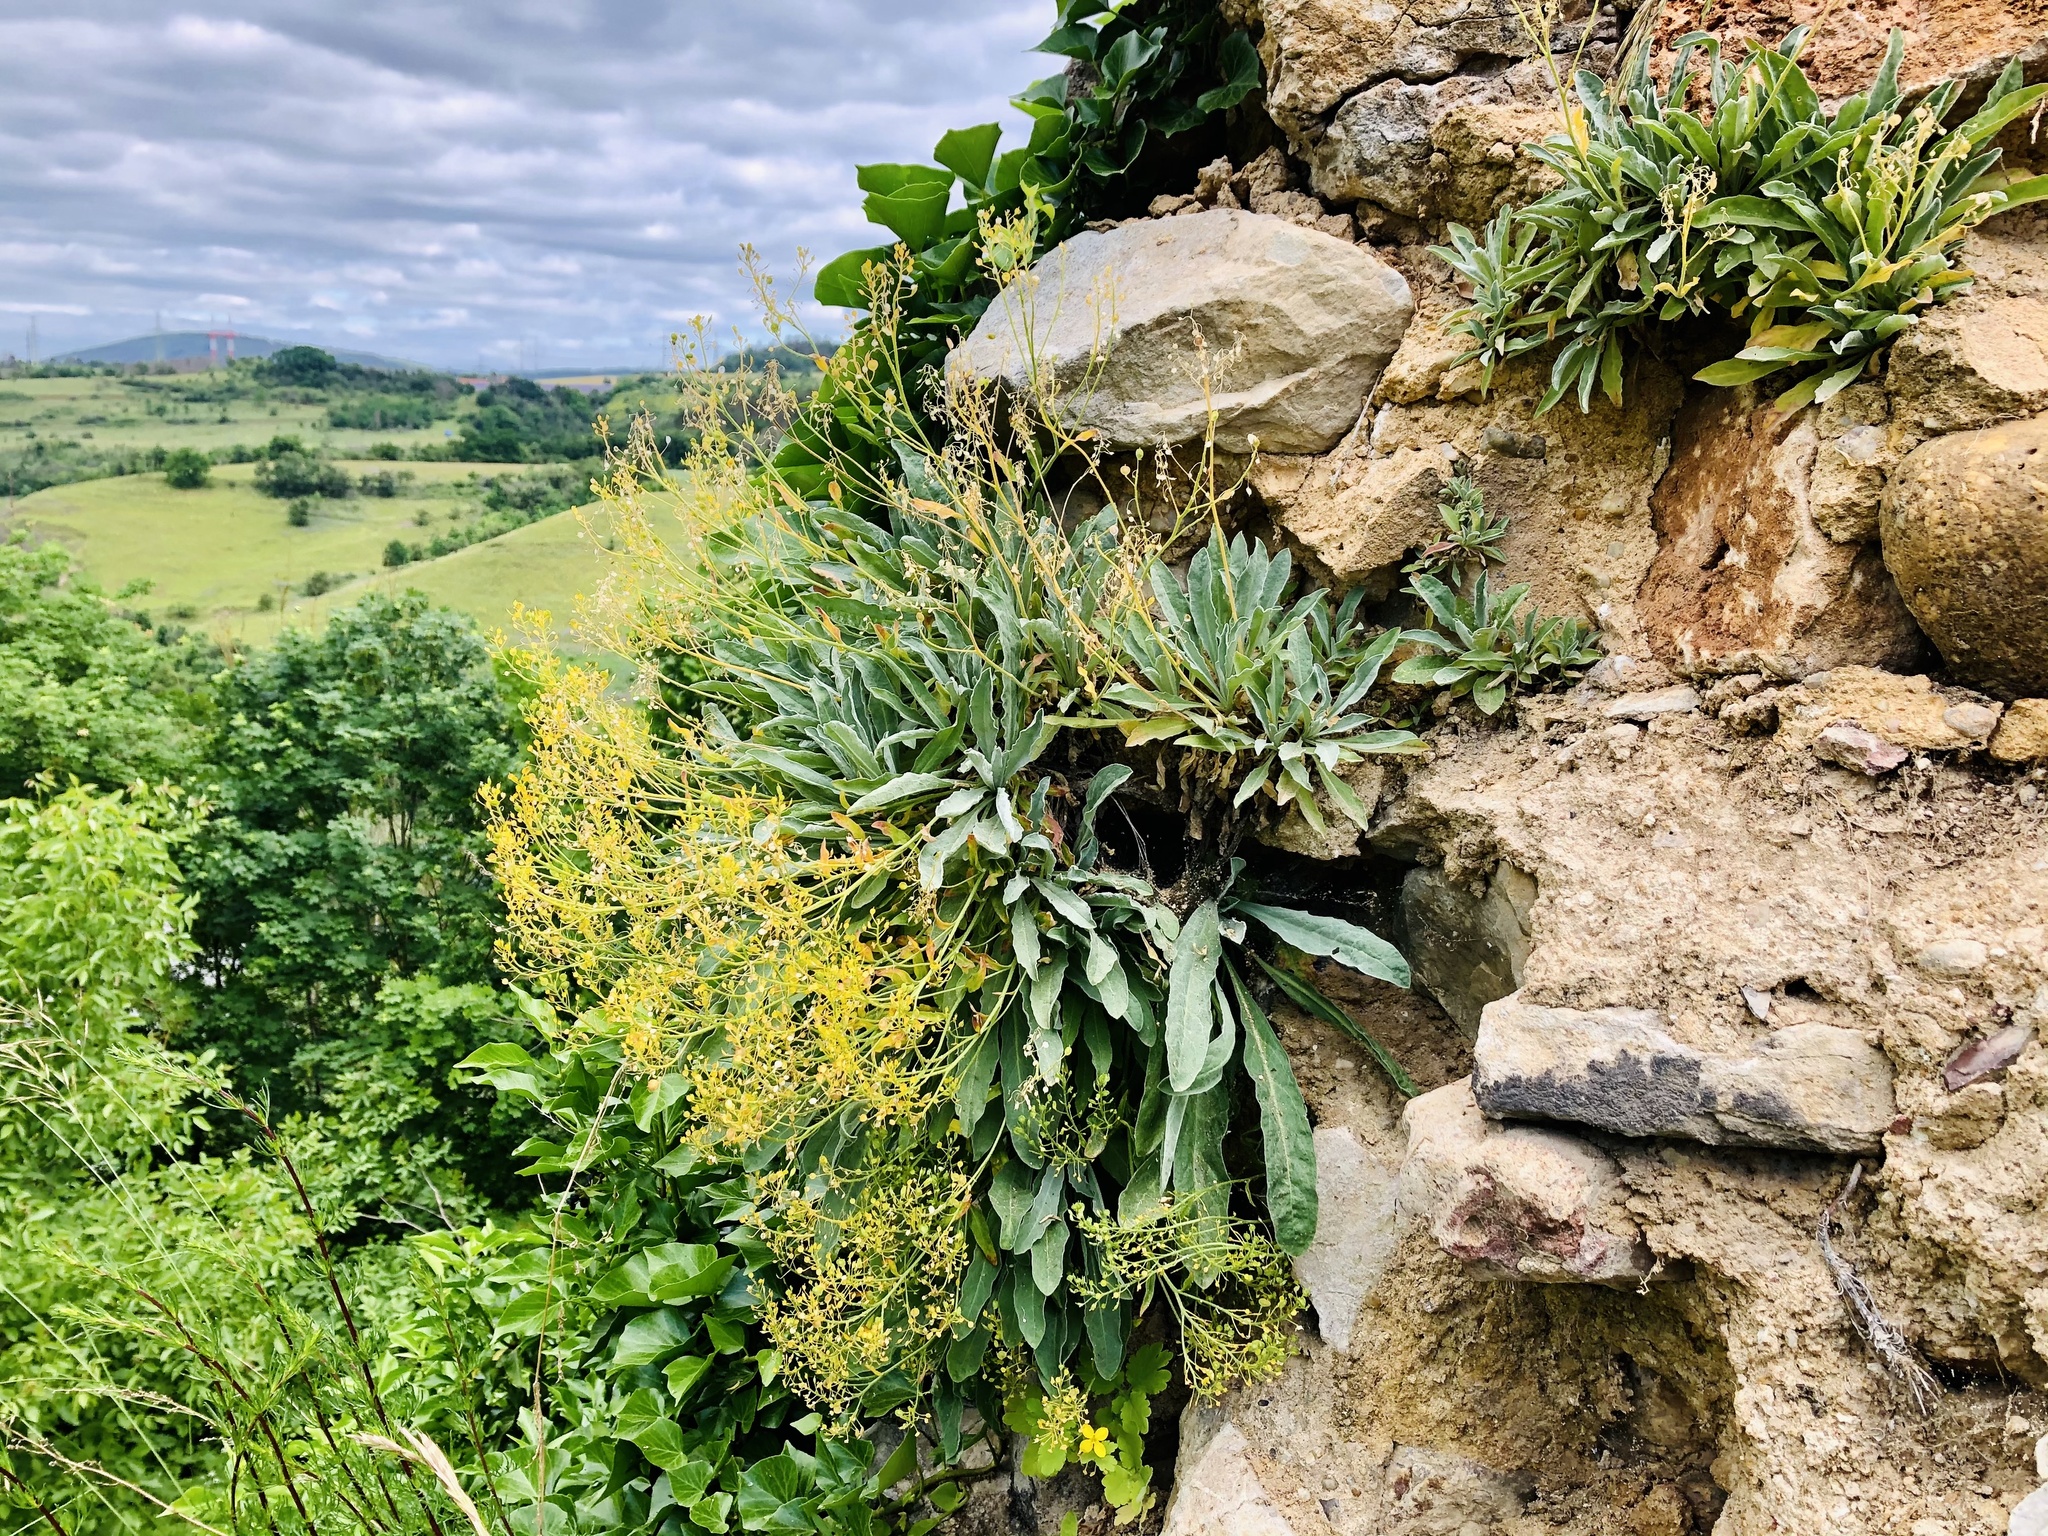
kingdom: Plantae
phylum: Tracheophyta
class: Magnoliopsida
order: Brassicales
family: Brassicaceae
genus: Aurinia
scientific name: Aurinia saxatilis
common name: Golden-tuft alyssum
